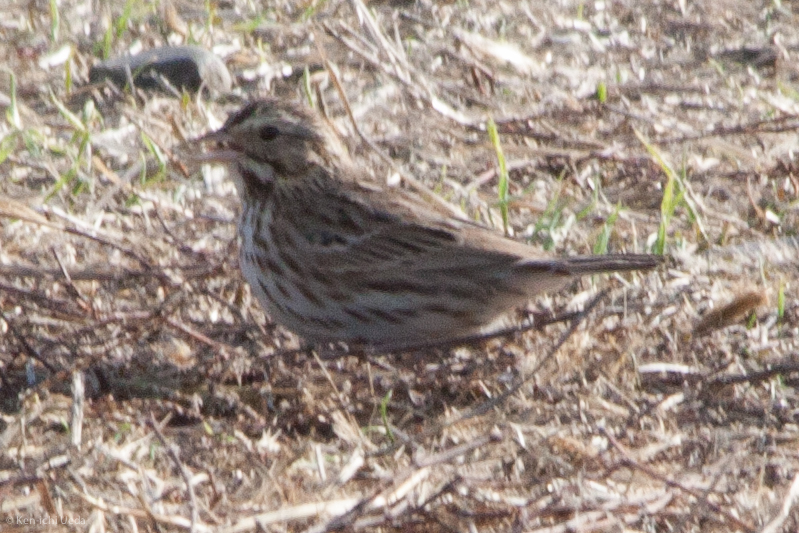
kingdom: Animalia
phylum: Chordata
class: Aves
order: Passeriformes
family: Passerellidae
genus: Passerculus
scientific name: Passerculus sandwichensis
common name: Savannah sparrow
